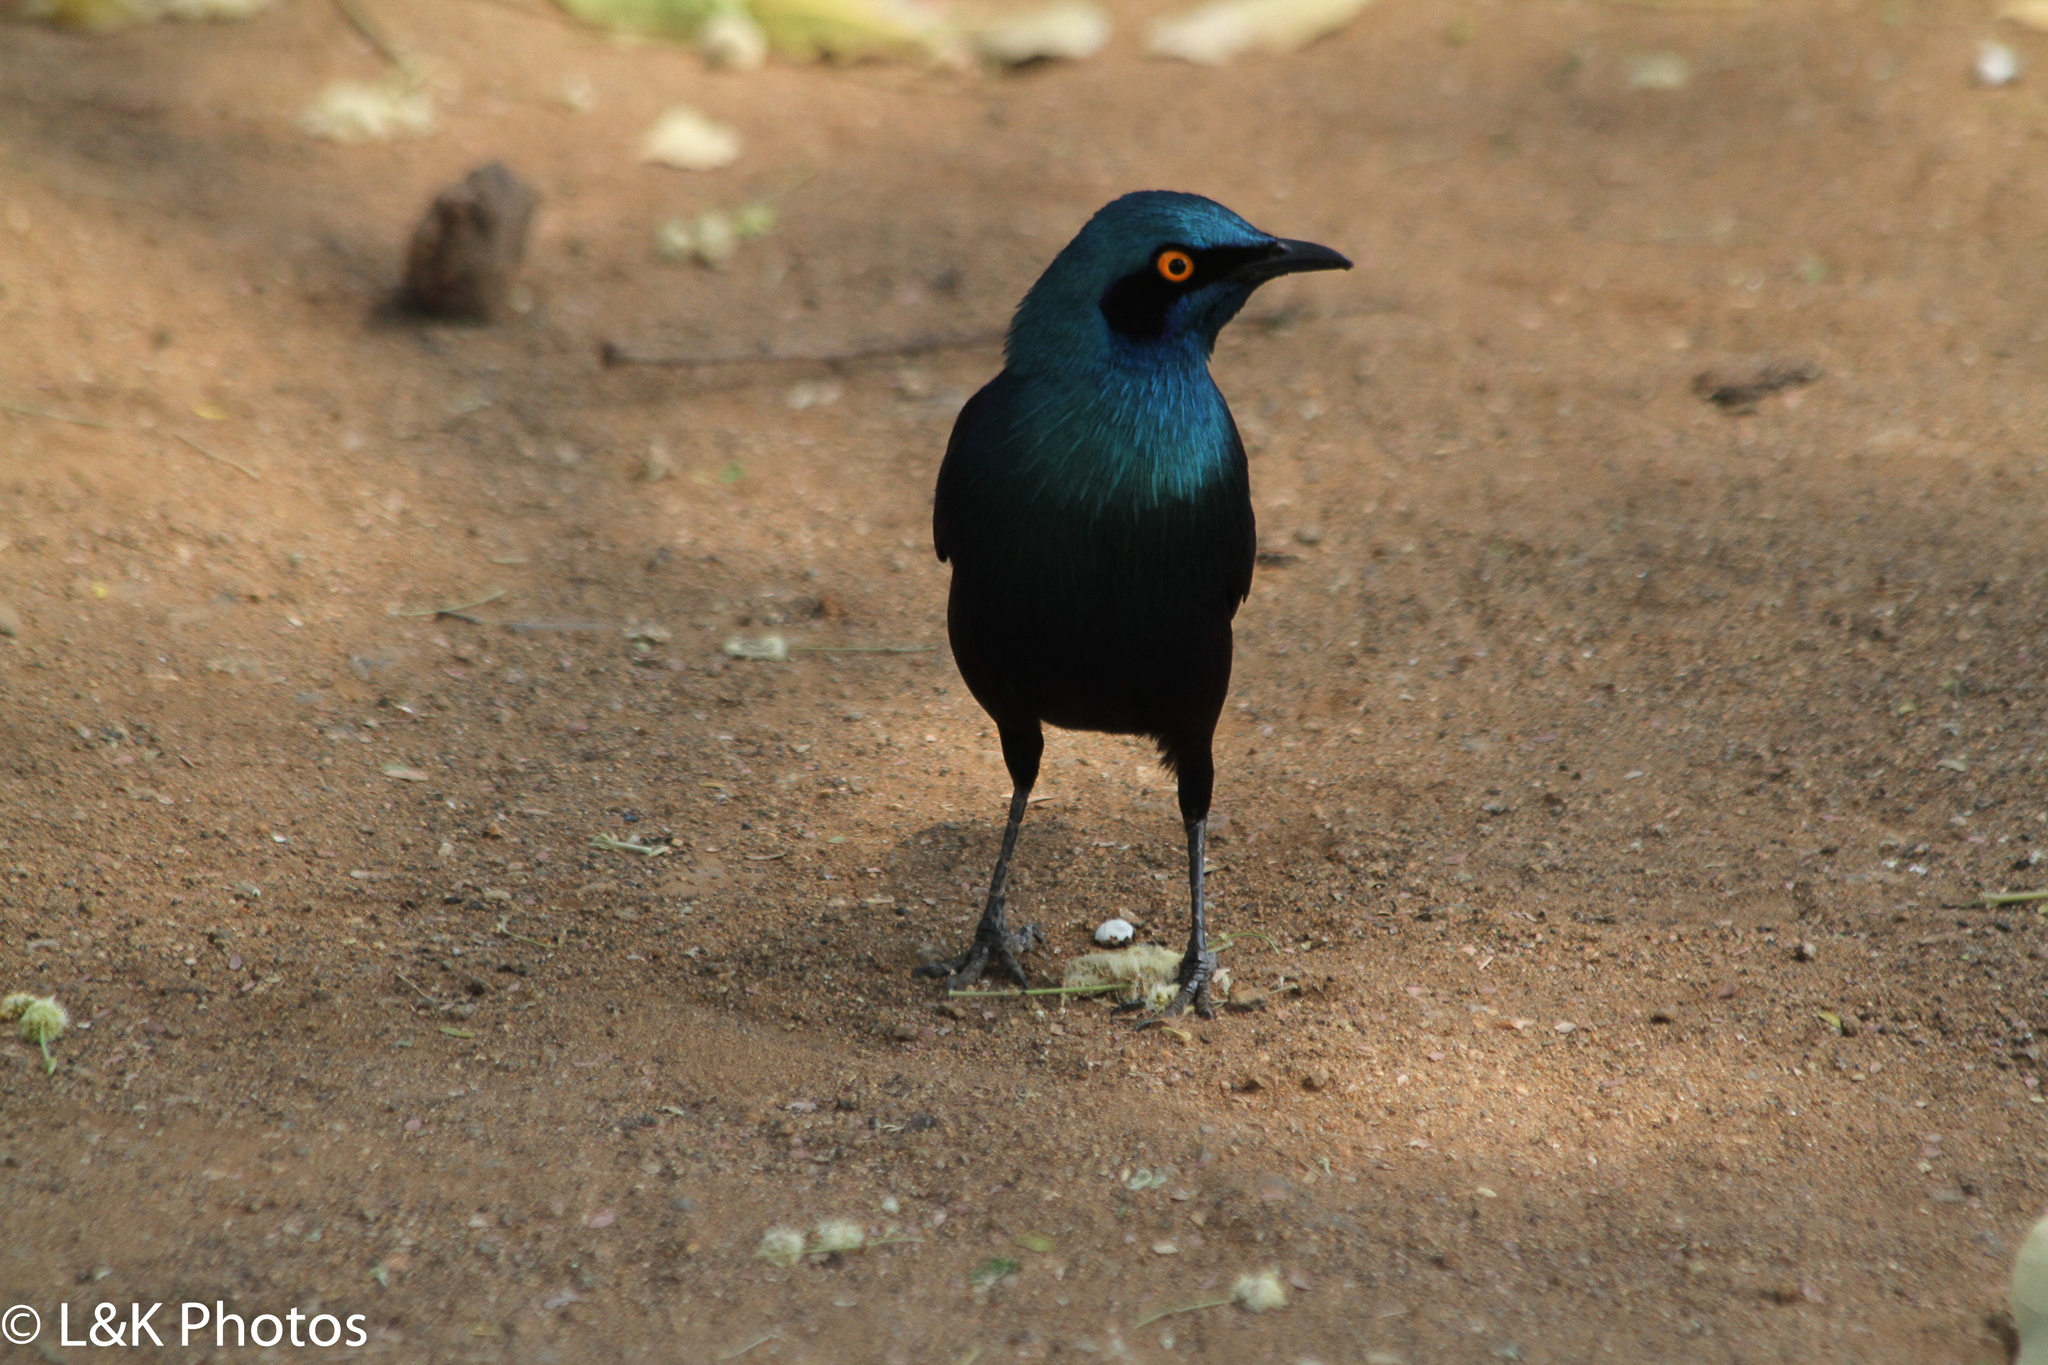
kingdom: Animalia
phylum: Chordata
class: Aves
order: Passeriformes
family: Sturnidae
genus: Lamprotornis
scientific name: Lamprotornis chalybaeus
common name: Greater blue-eared starling
